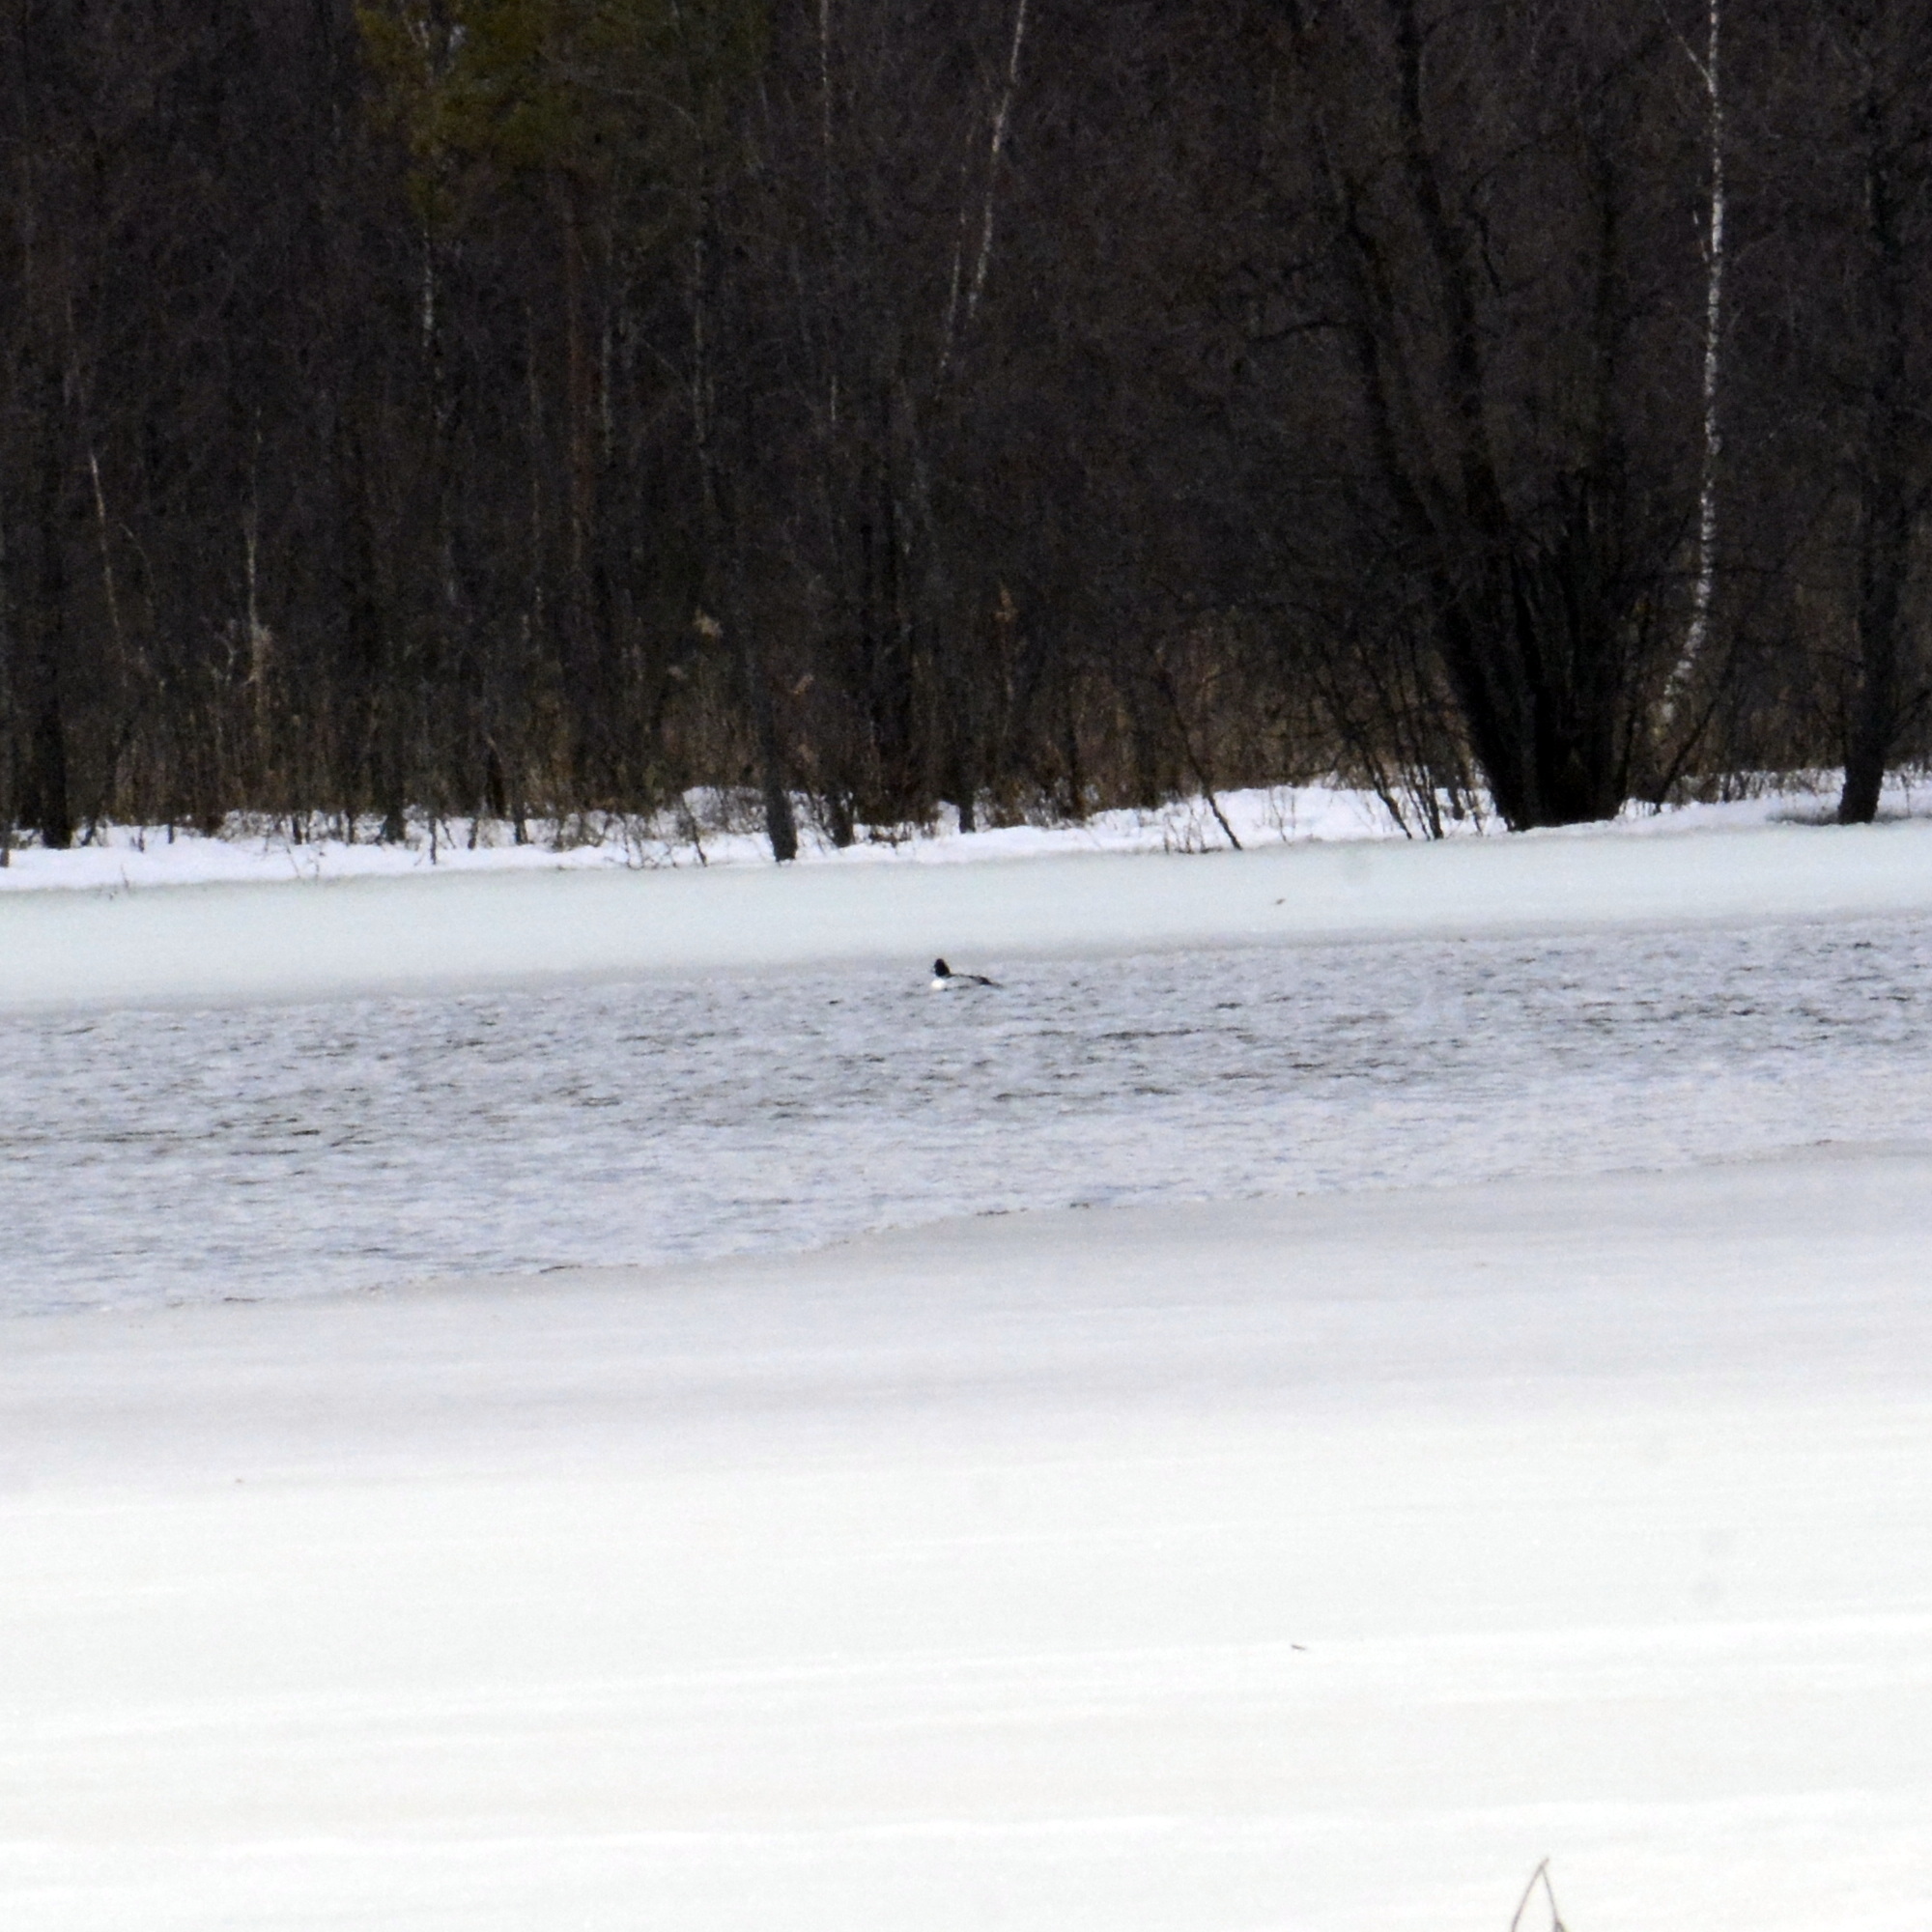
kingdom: Animalia
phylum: Chordata
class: Aves
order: Anseriformes
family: Anatidae
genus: Bucephala
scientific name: Bucephala clangula
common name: Common goldeneye
